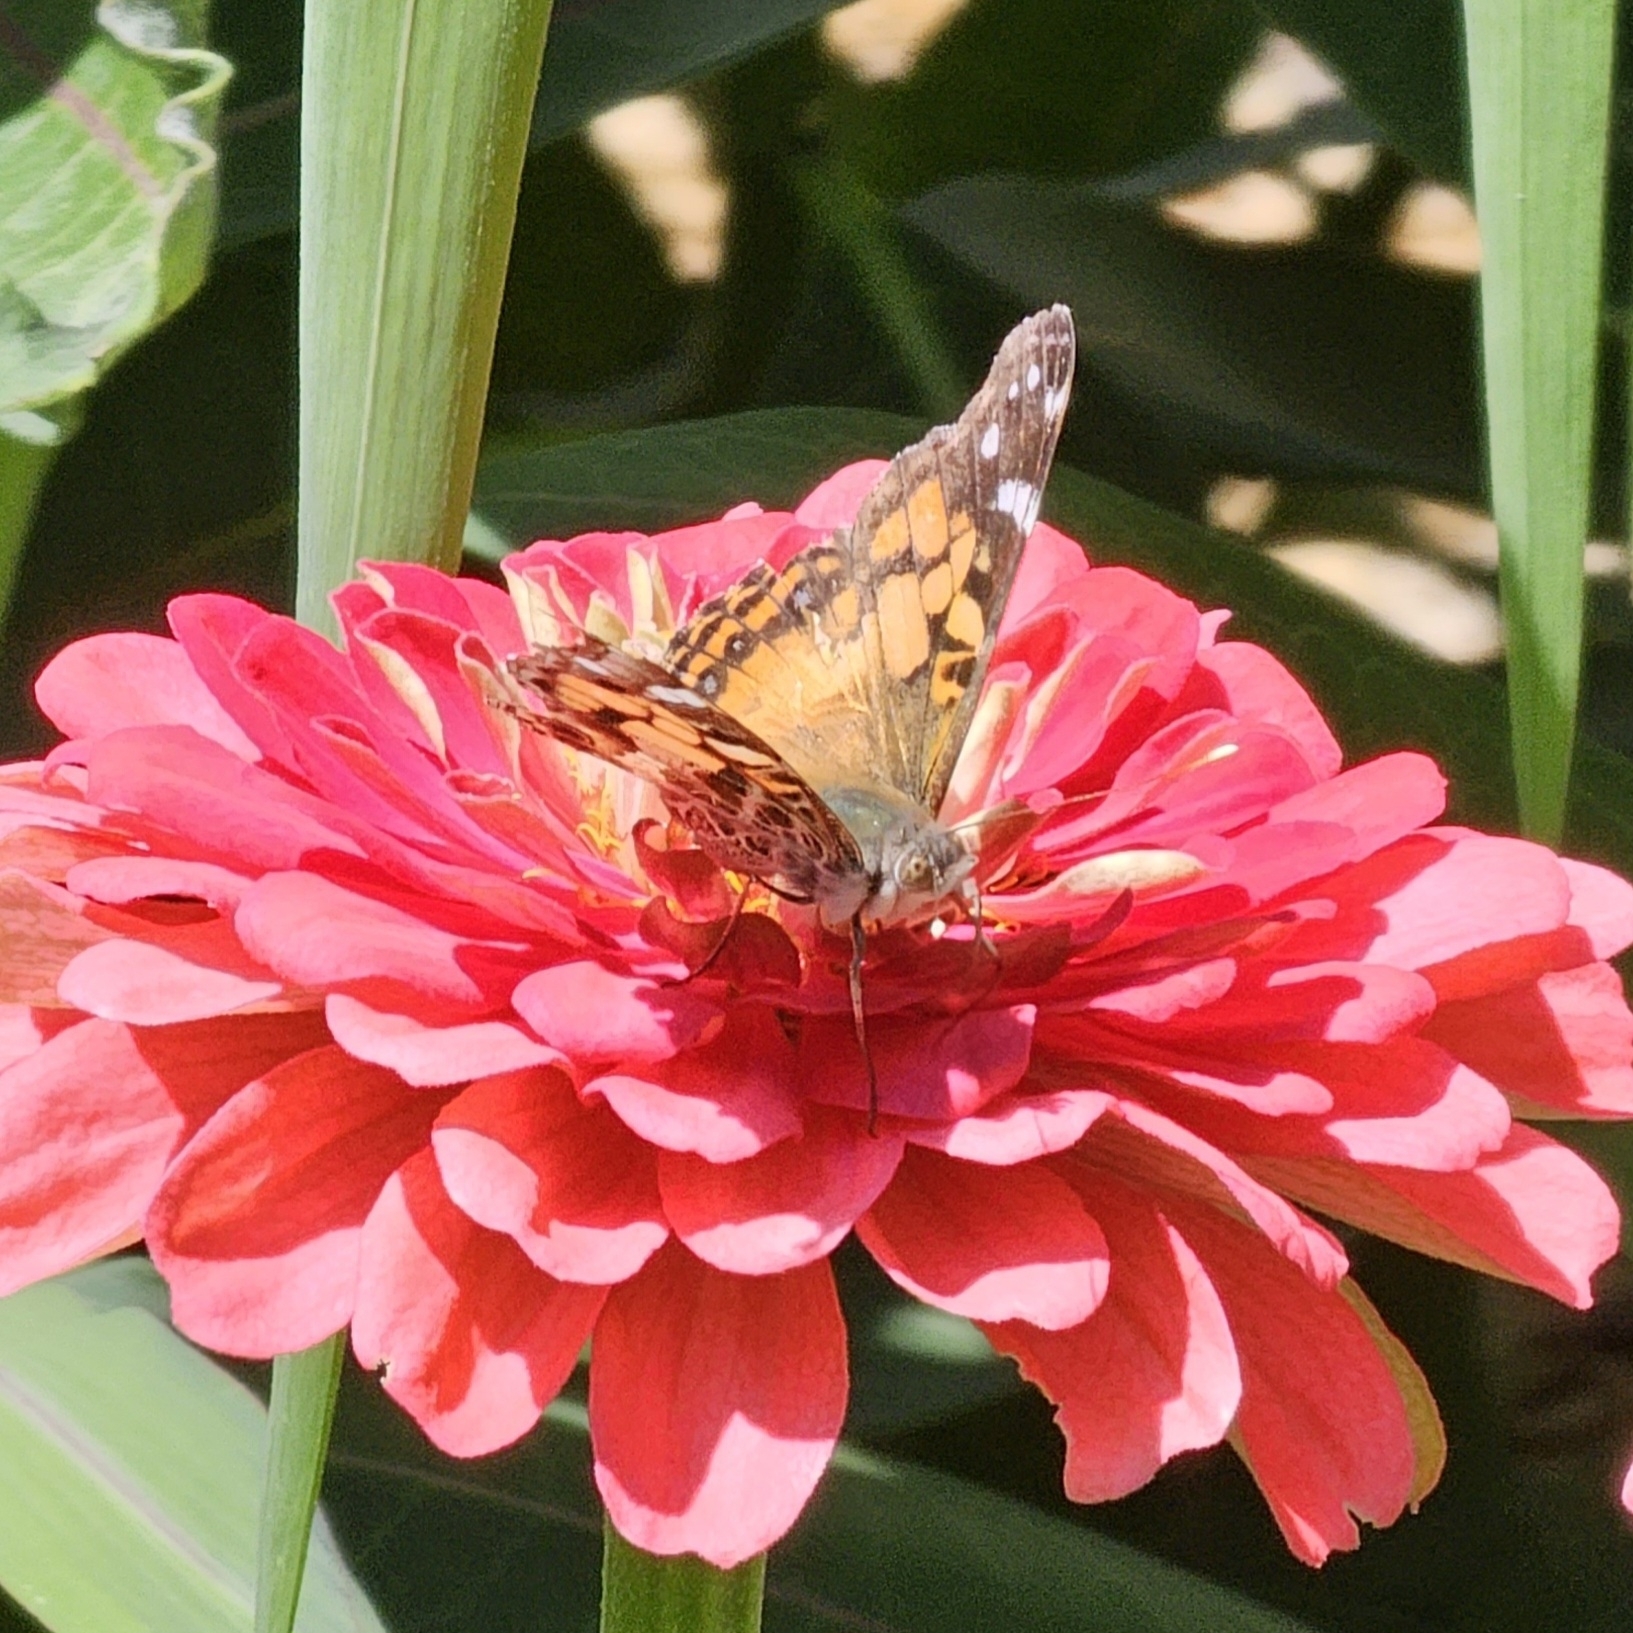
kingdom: Animalia
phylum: Arthropoda
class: Insecta
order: Lepidoptera
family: Nymphalidae
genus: Vanessa
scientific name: Vanessa virginiensis
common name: American lady
